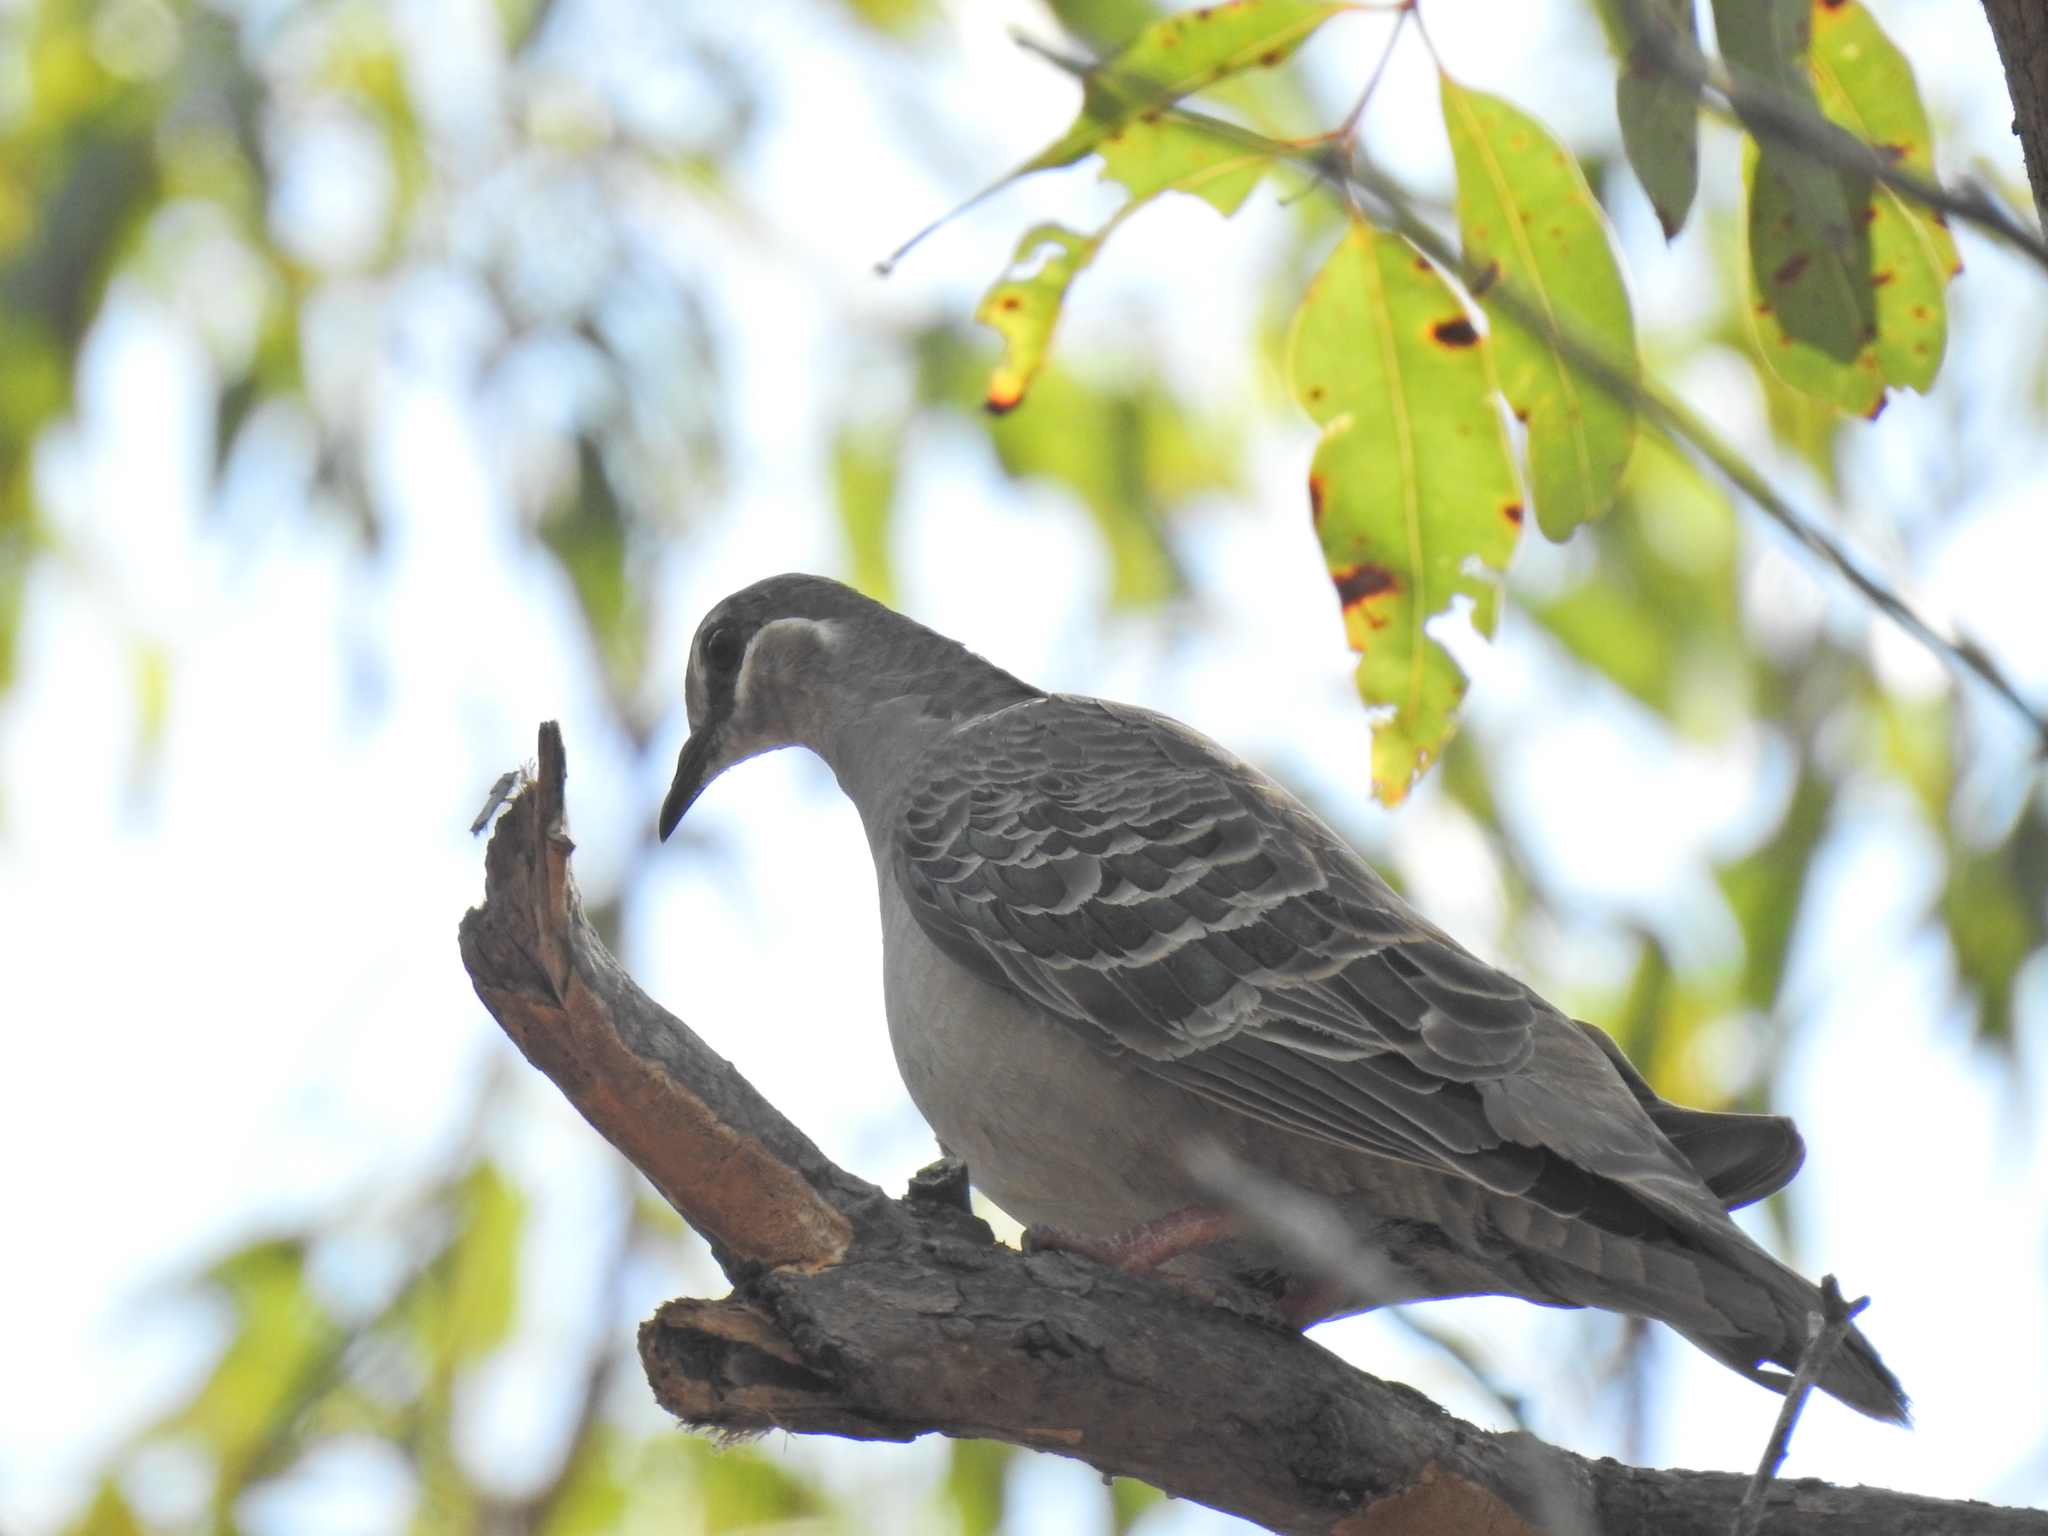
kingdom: Animalia
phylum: Chordata
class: Aves
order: Columbiformes
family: Columbidae
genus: Phaps
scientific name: Phaps chalcoptera
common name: Common bronzewing
